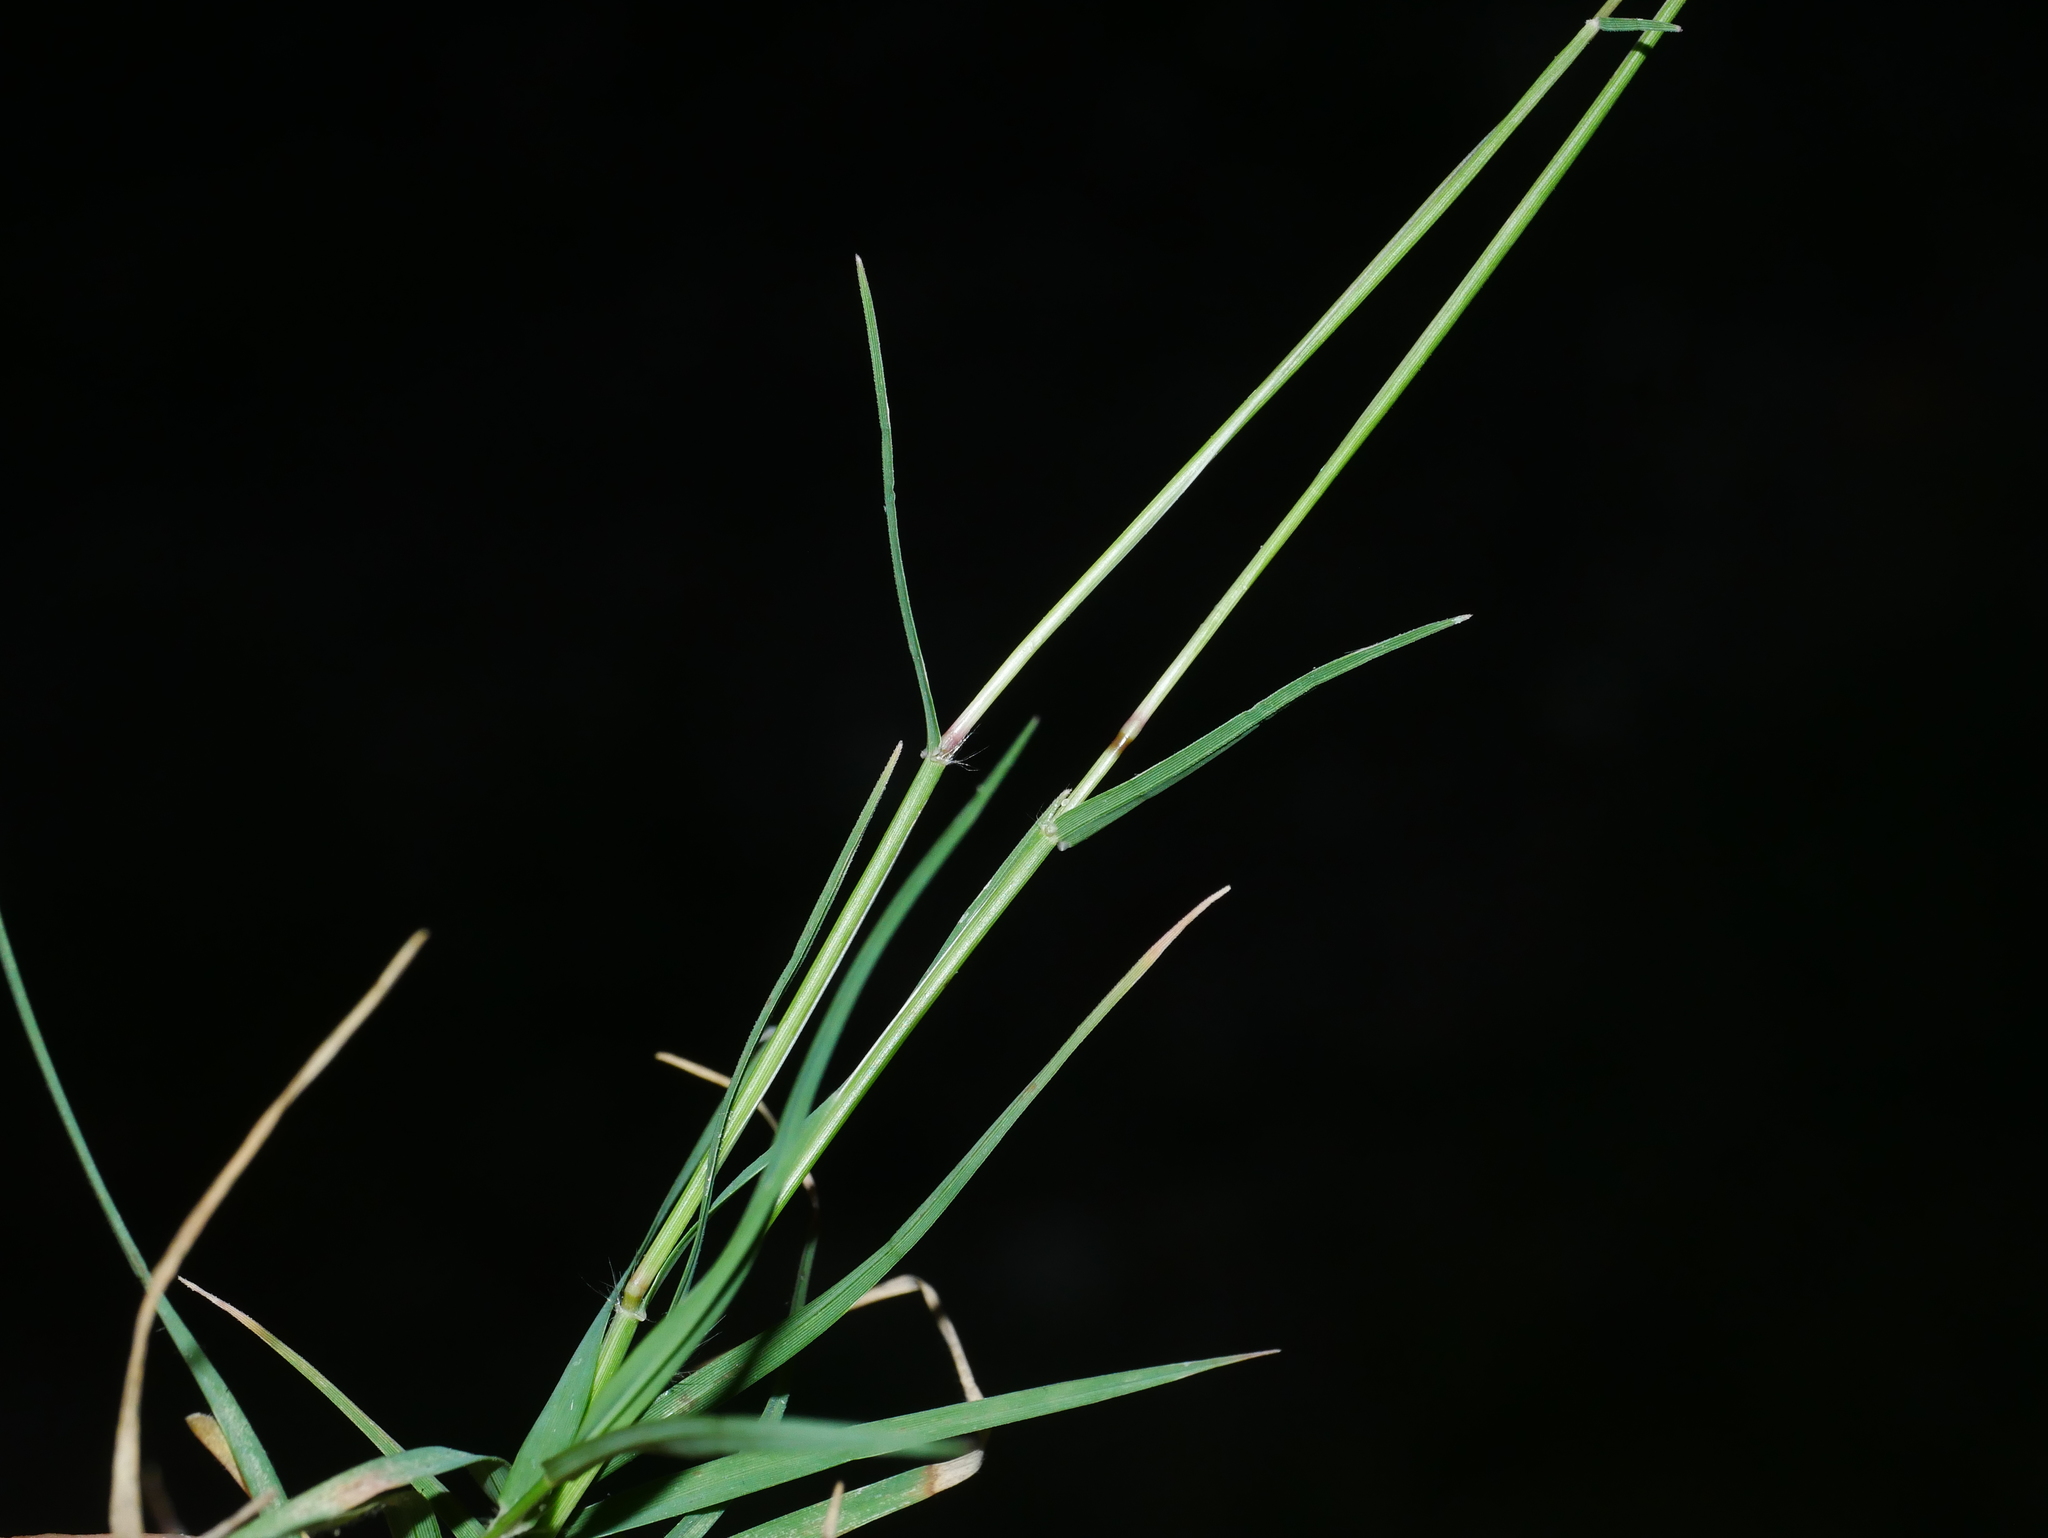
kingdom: Plantae
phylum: Tracheophyta
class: Liliopsida
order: Poales
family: Poaceae
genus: Cynodon
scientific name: Cynodon dactylon
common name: Bermuda grass
